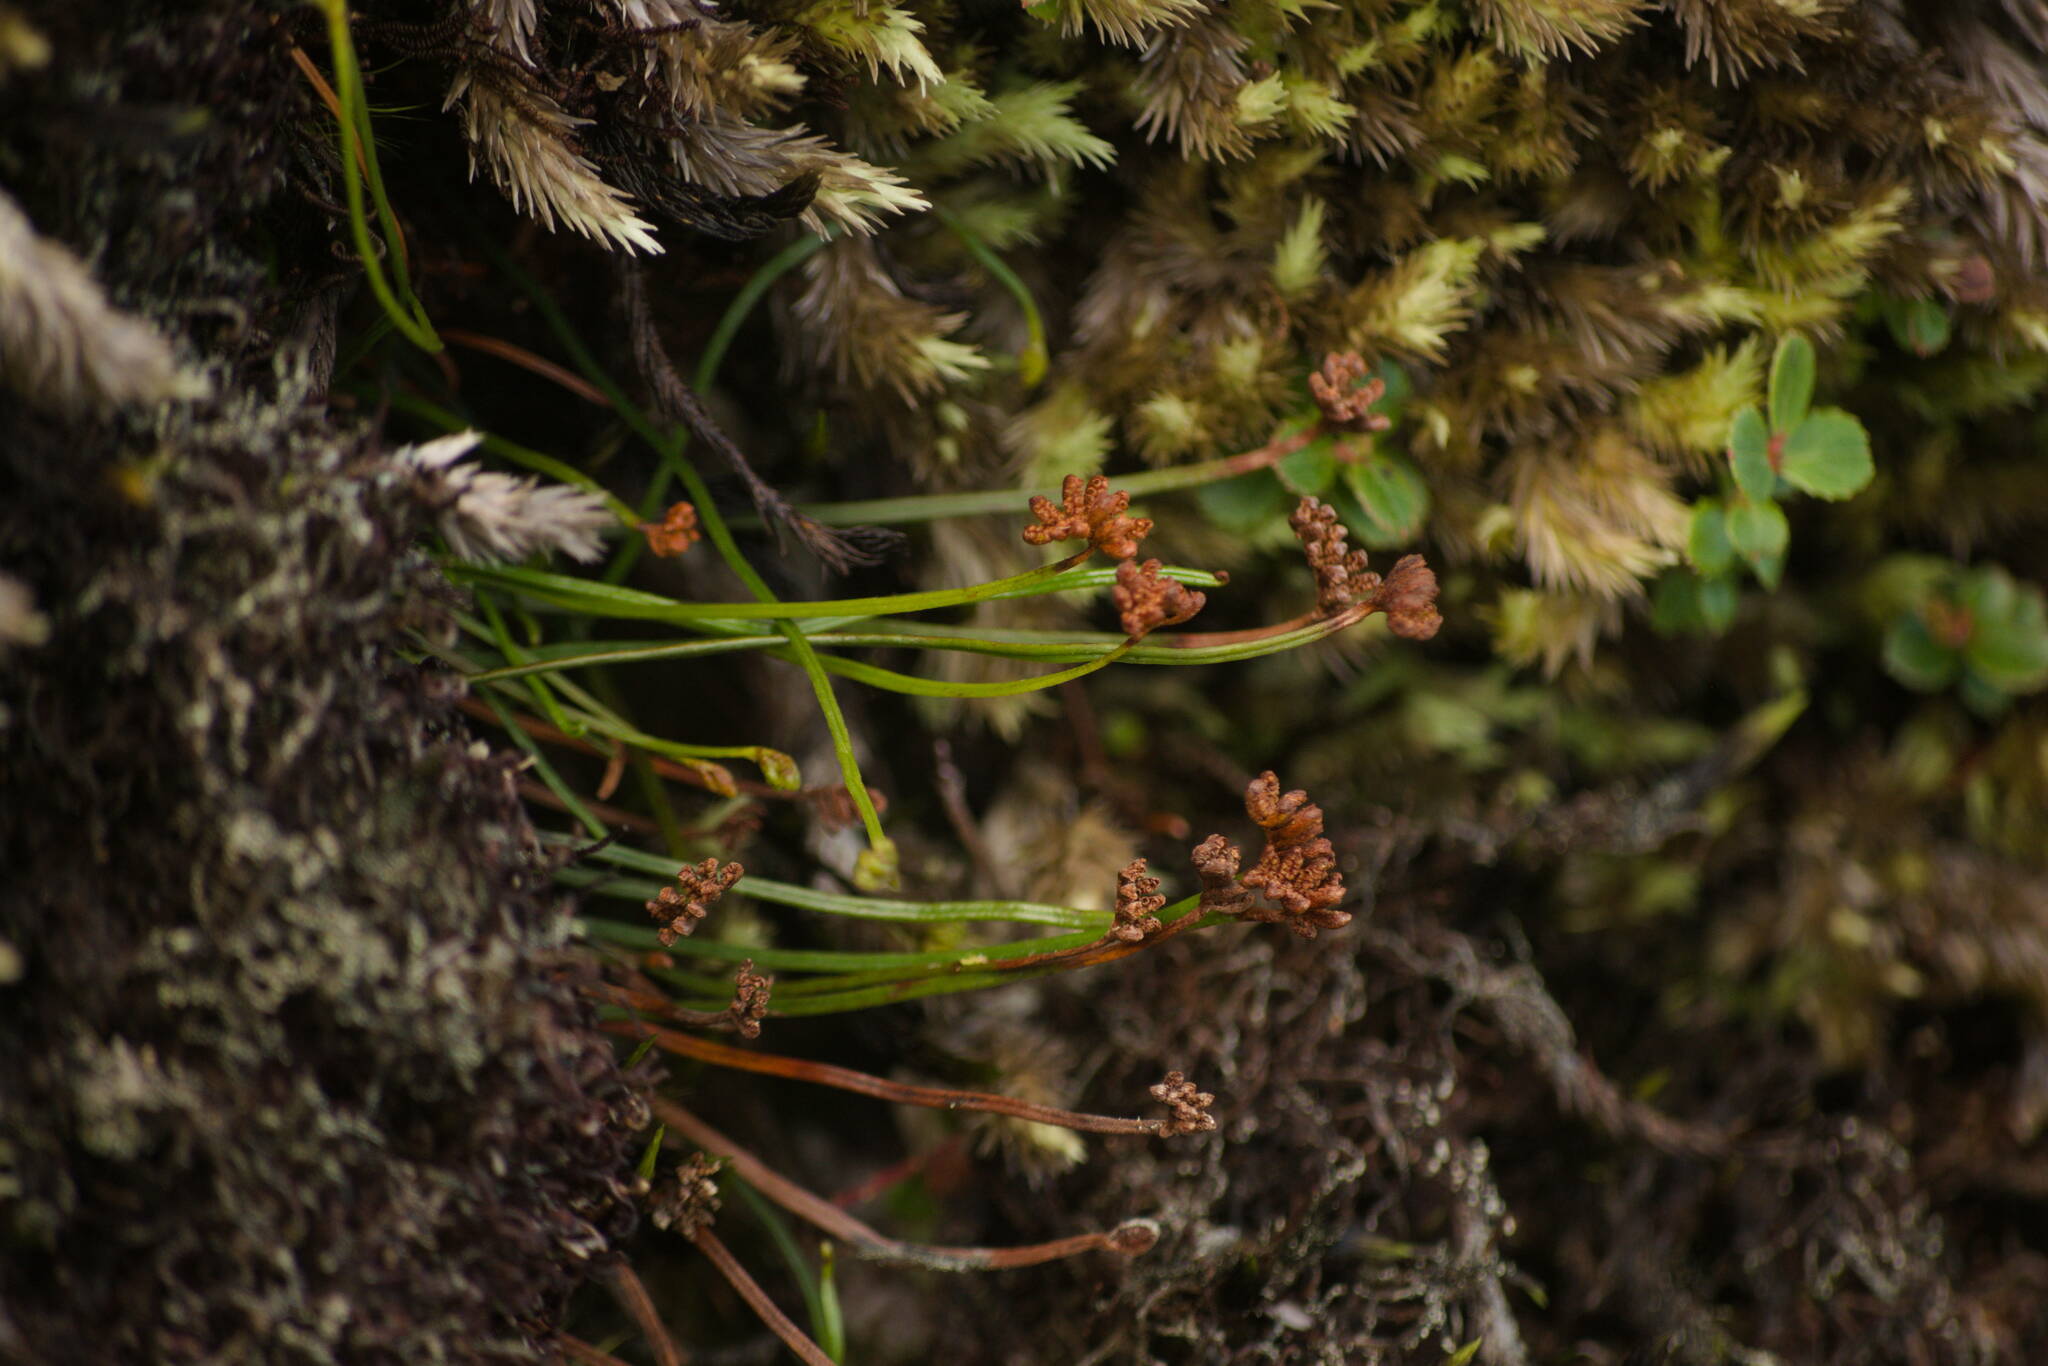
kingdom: Plantae
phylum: Tracheophyta
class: Polypodiopsida
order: Schizaeales
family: Schizaeaceae
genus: Microschizaea
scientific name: Microschizaea robusta
